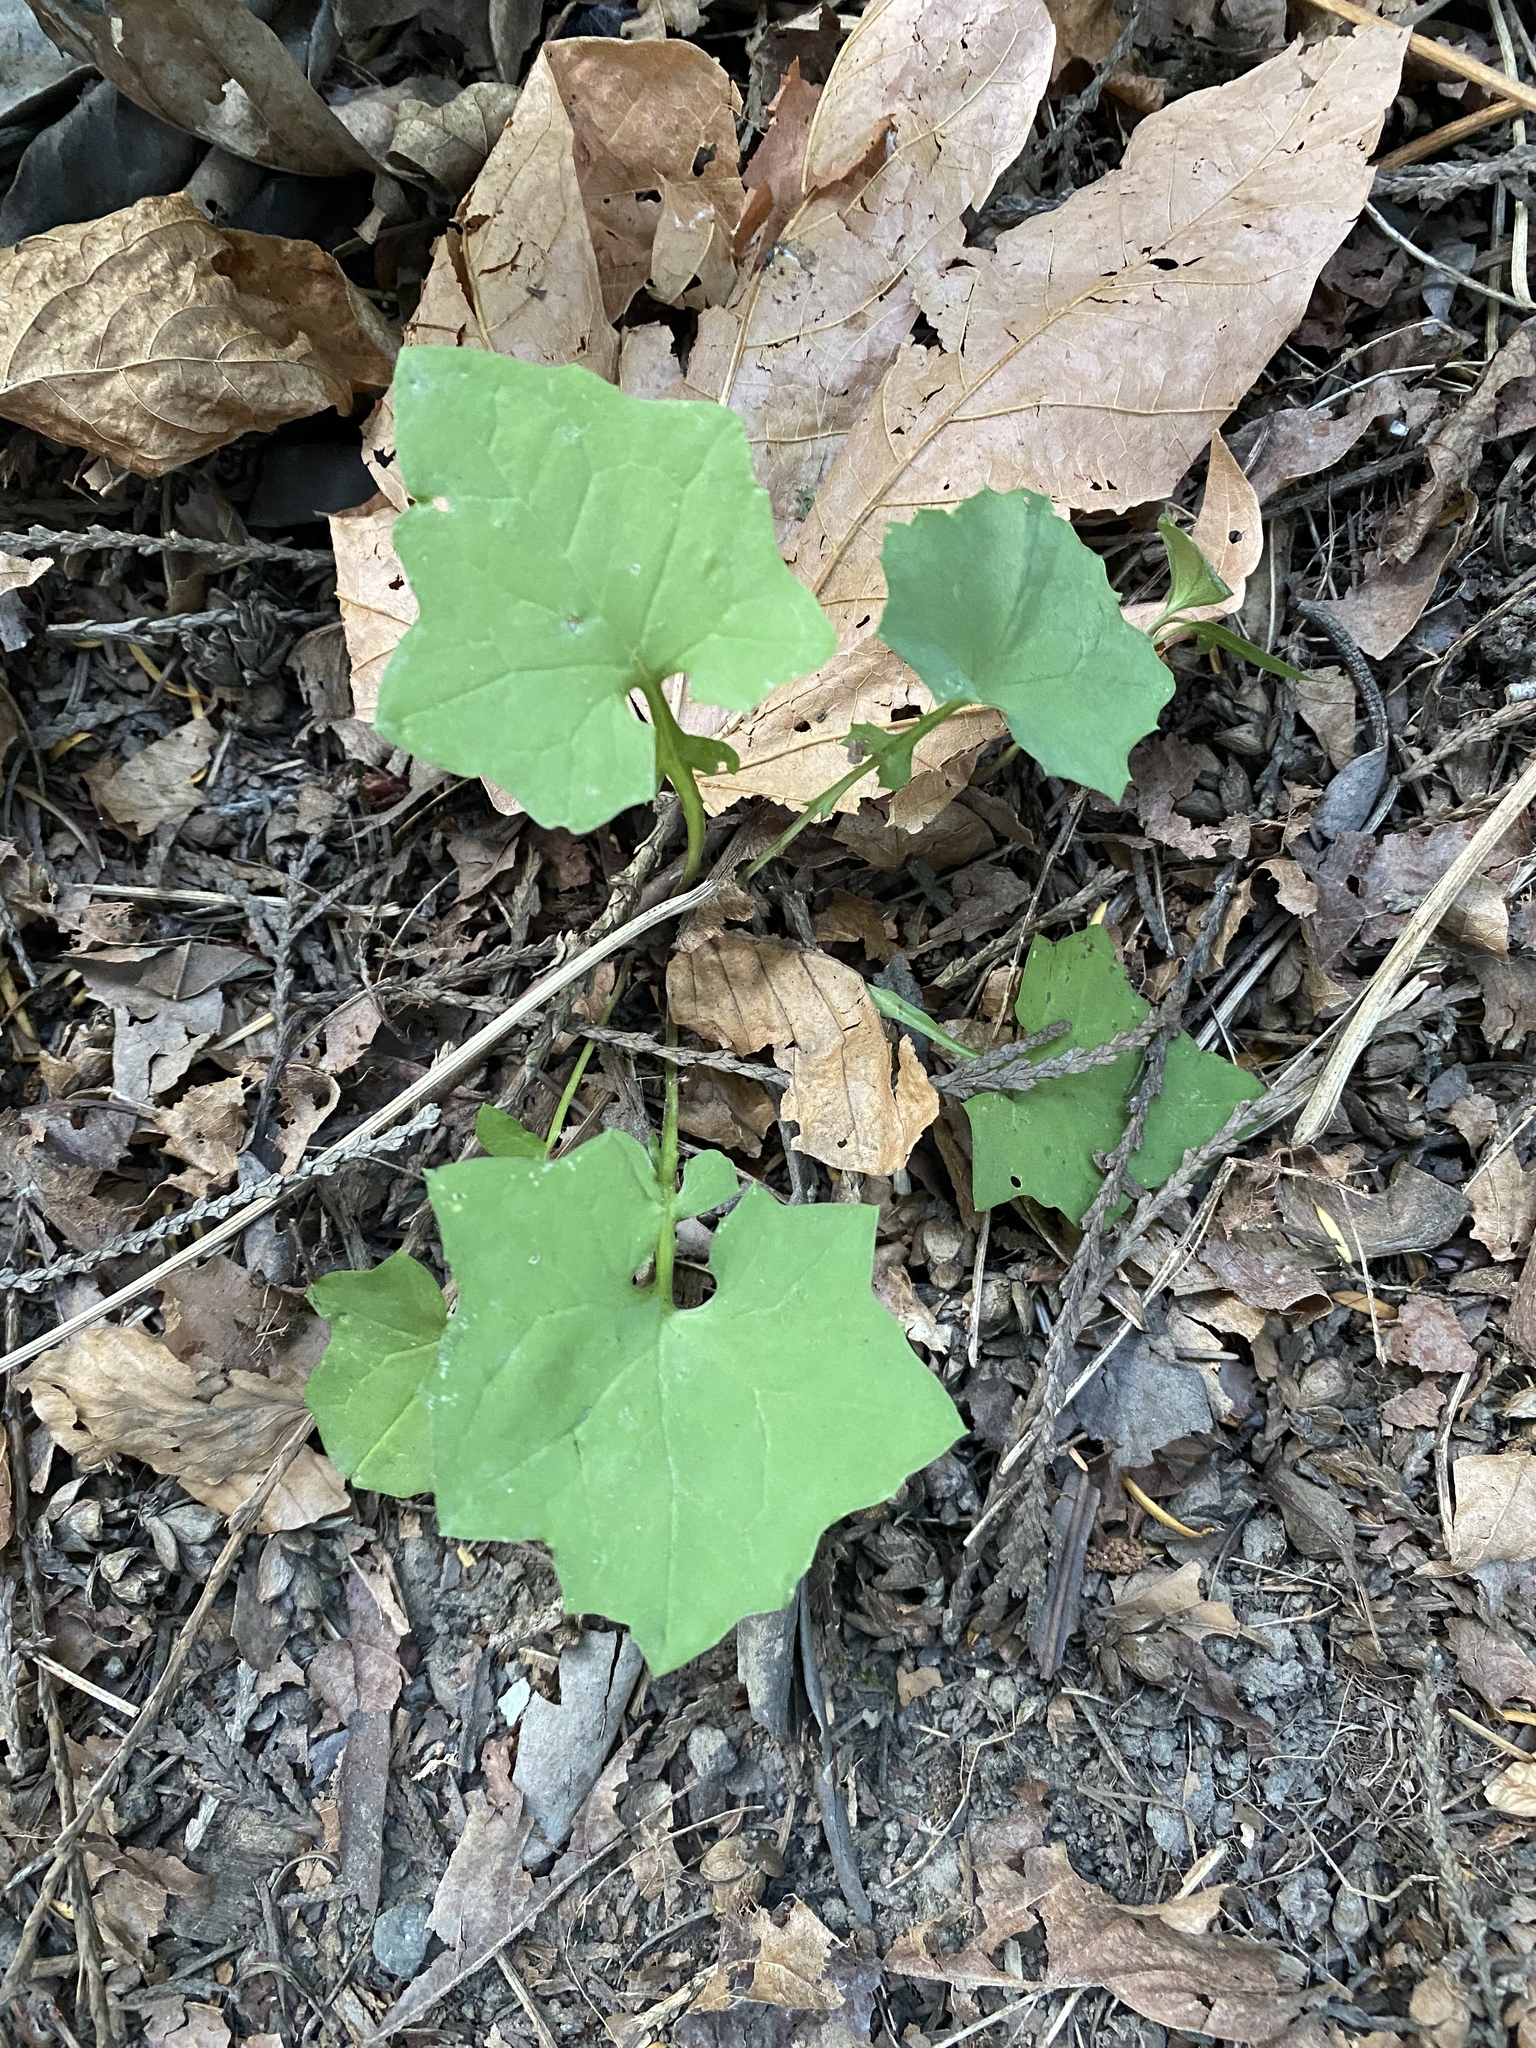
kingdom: Plantae
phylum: Tracheophyta
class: Magnoliopsida
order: Asterales
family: Asteraceae
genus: Mycelis
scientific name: Mycelis muralis
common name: Wall lettuce
